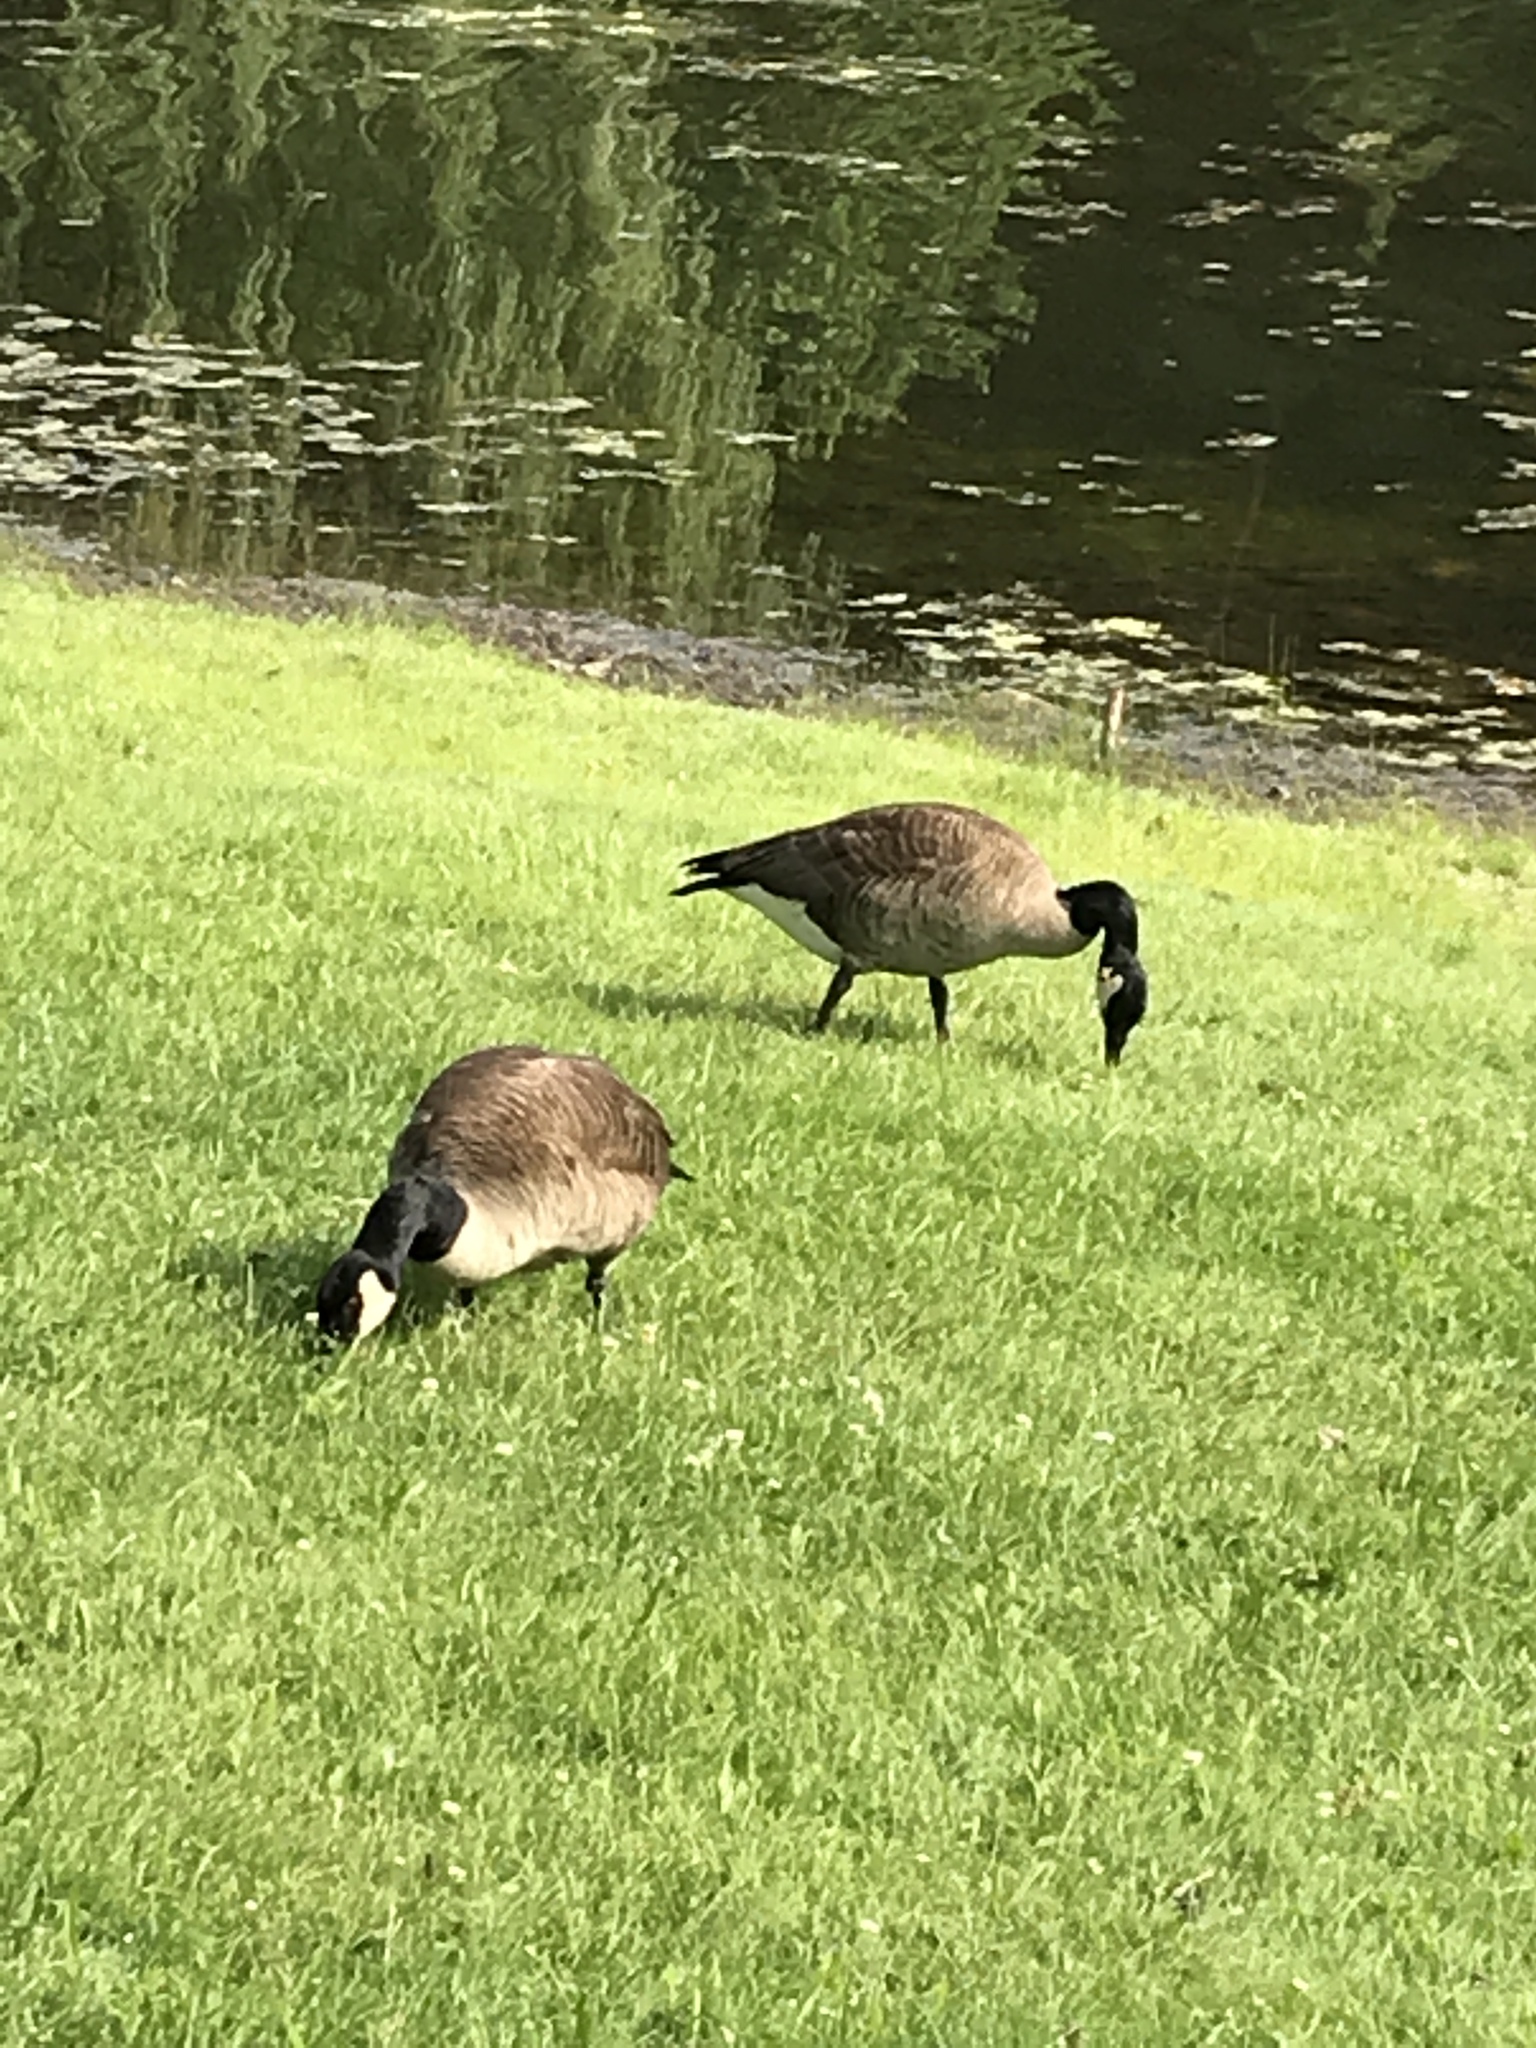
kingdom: Animalia
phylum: Chordata
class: Aves
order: Anseriformes
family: Anatidae
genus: Branta
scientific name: Branta canadensis
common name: Canada goose
